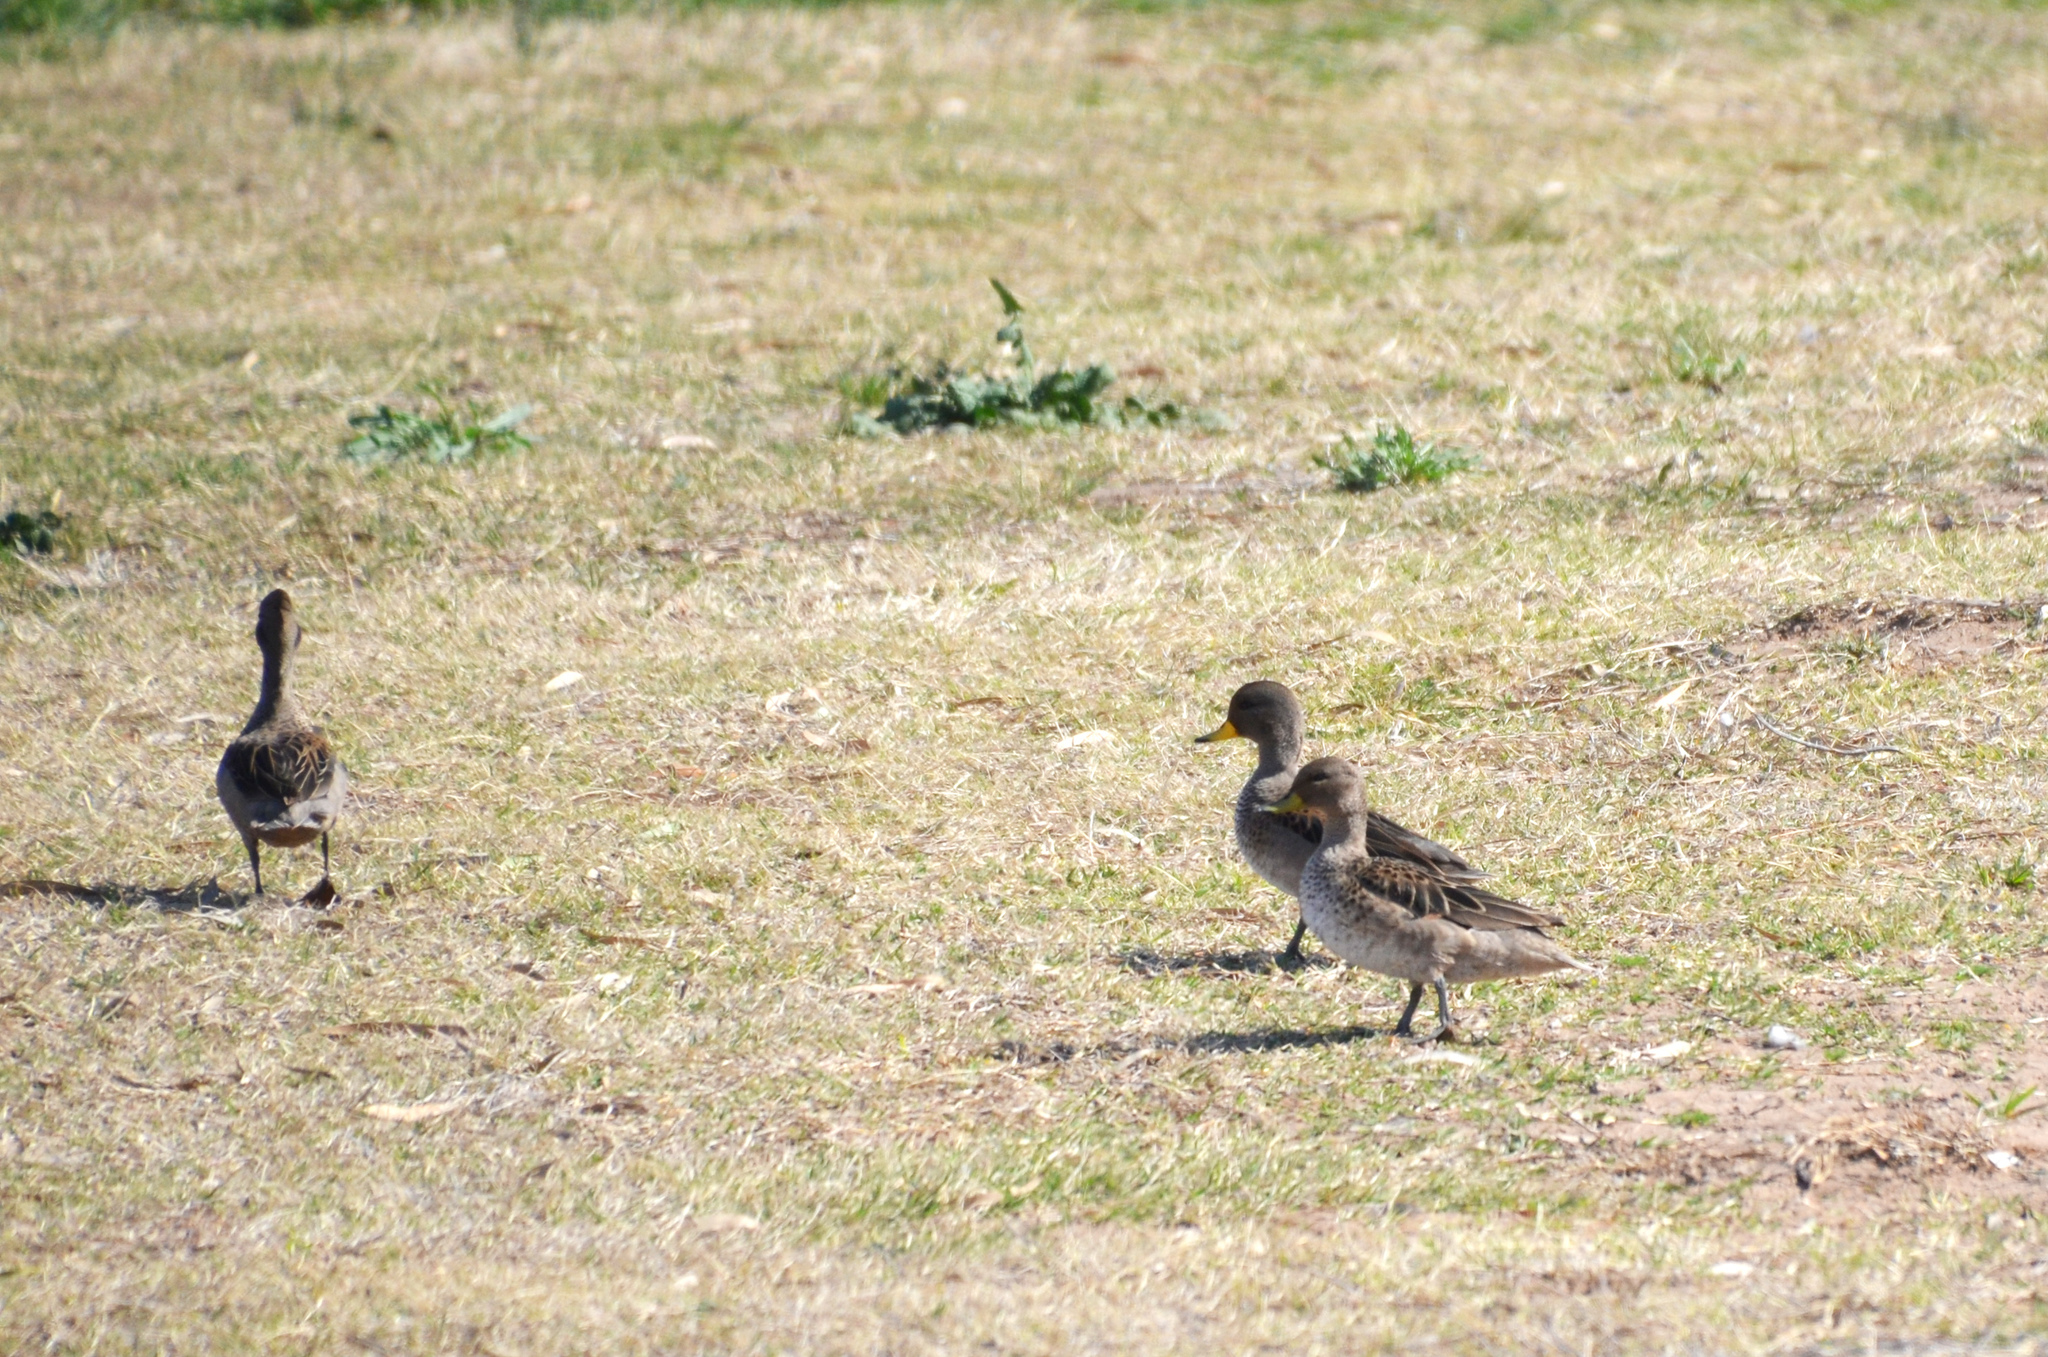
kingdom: Animalia
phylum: Chordata
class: Aves
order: Anseriformes
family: Anatidae
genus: Anas
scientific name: Anas flavirostris
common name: Yellow-billed teal
